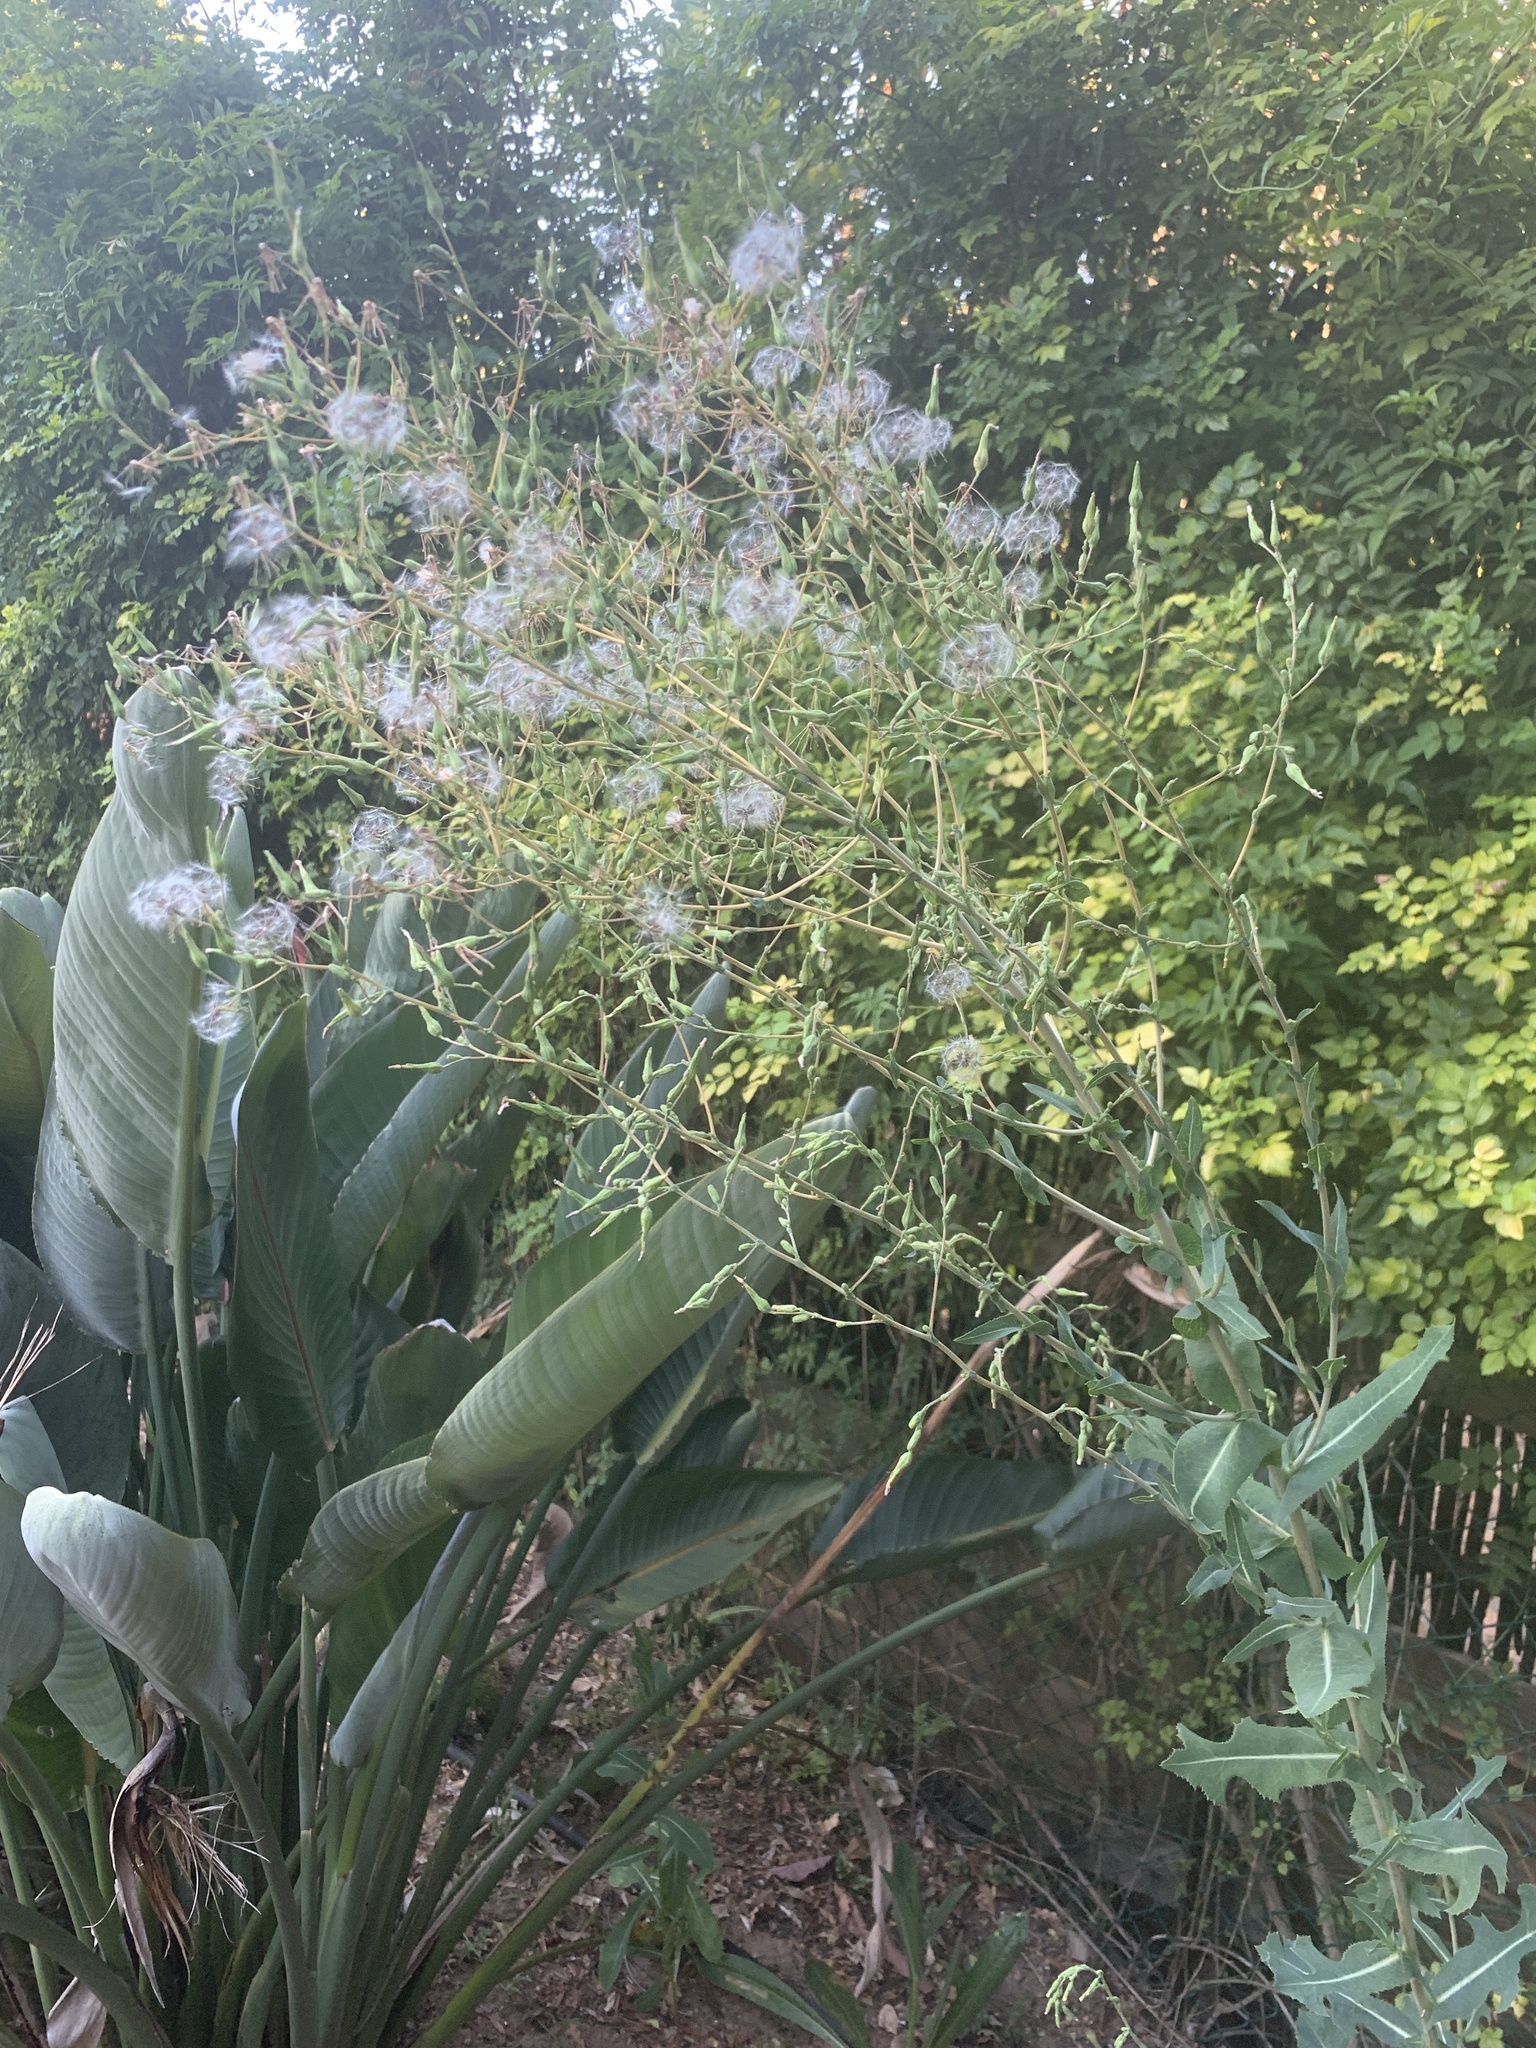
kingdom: Plantae
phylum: Tracheophyta
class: Magnoliopsida
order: Asterales
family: Asteraceae
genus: Lactuca
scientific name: Lactuca serriola
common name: Prickly lettuce
